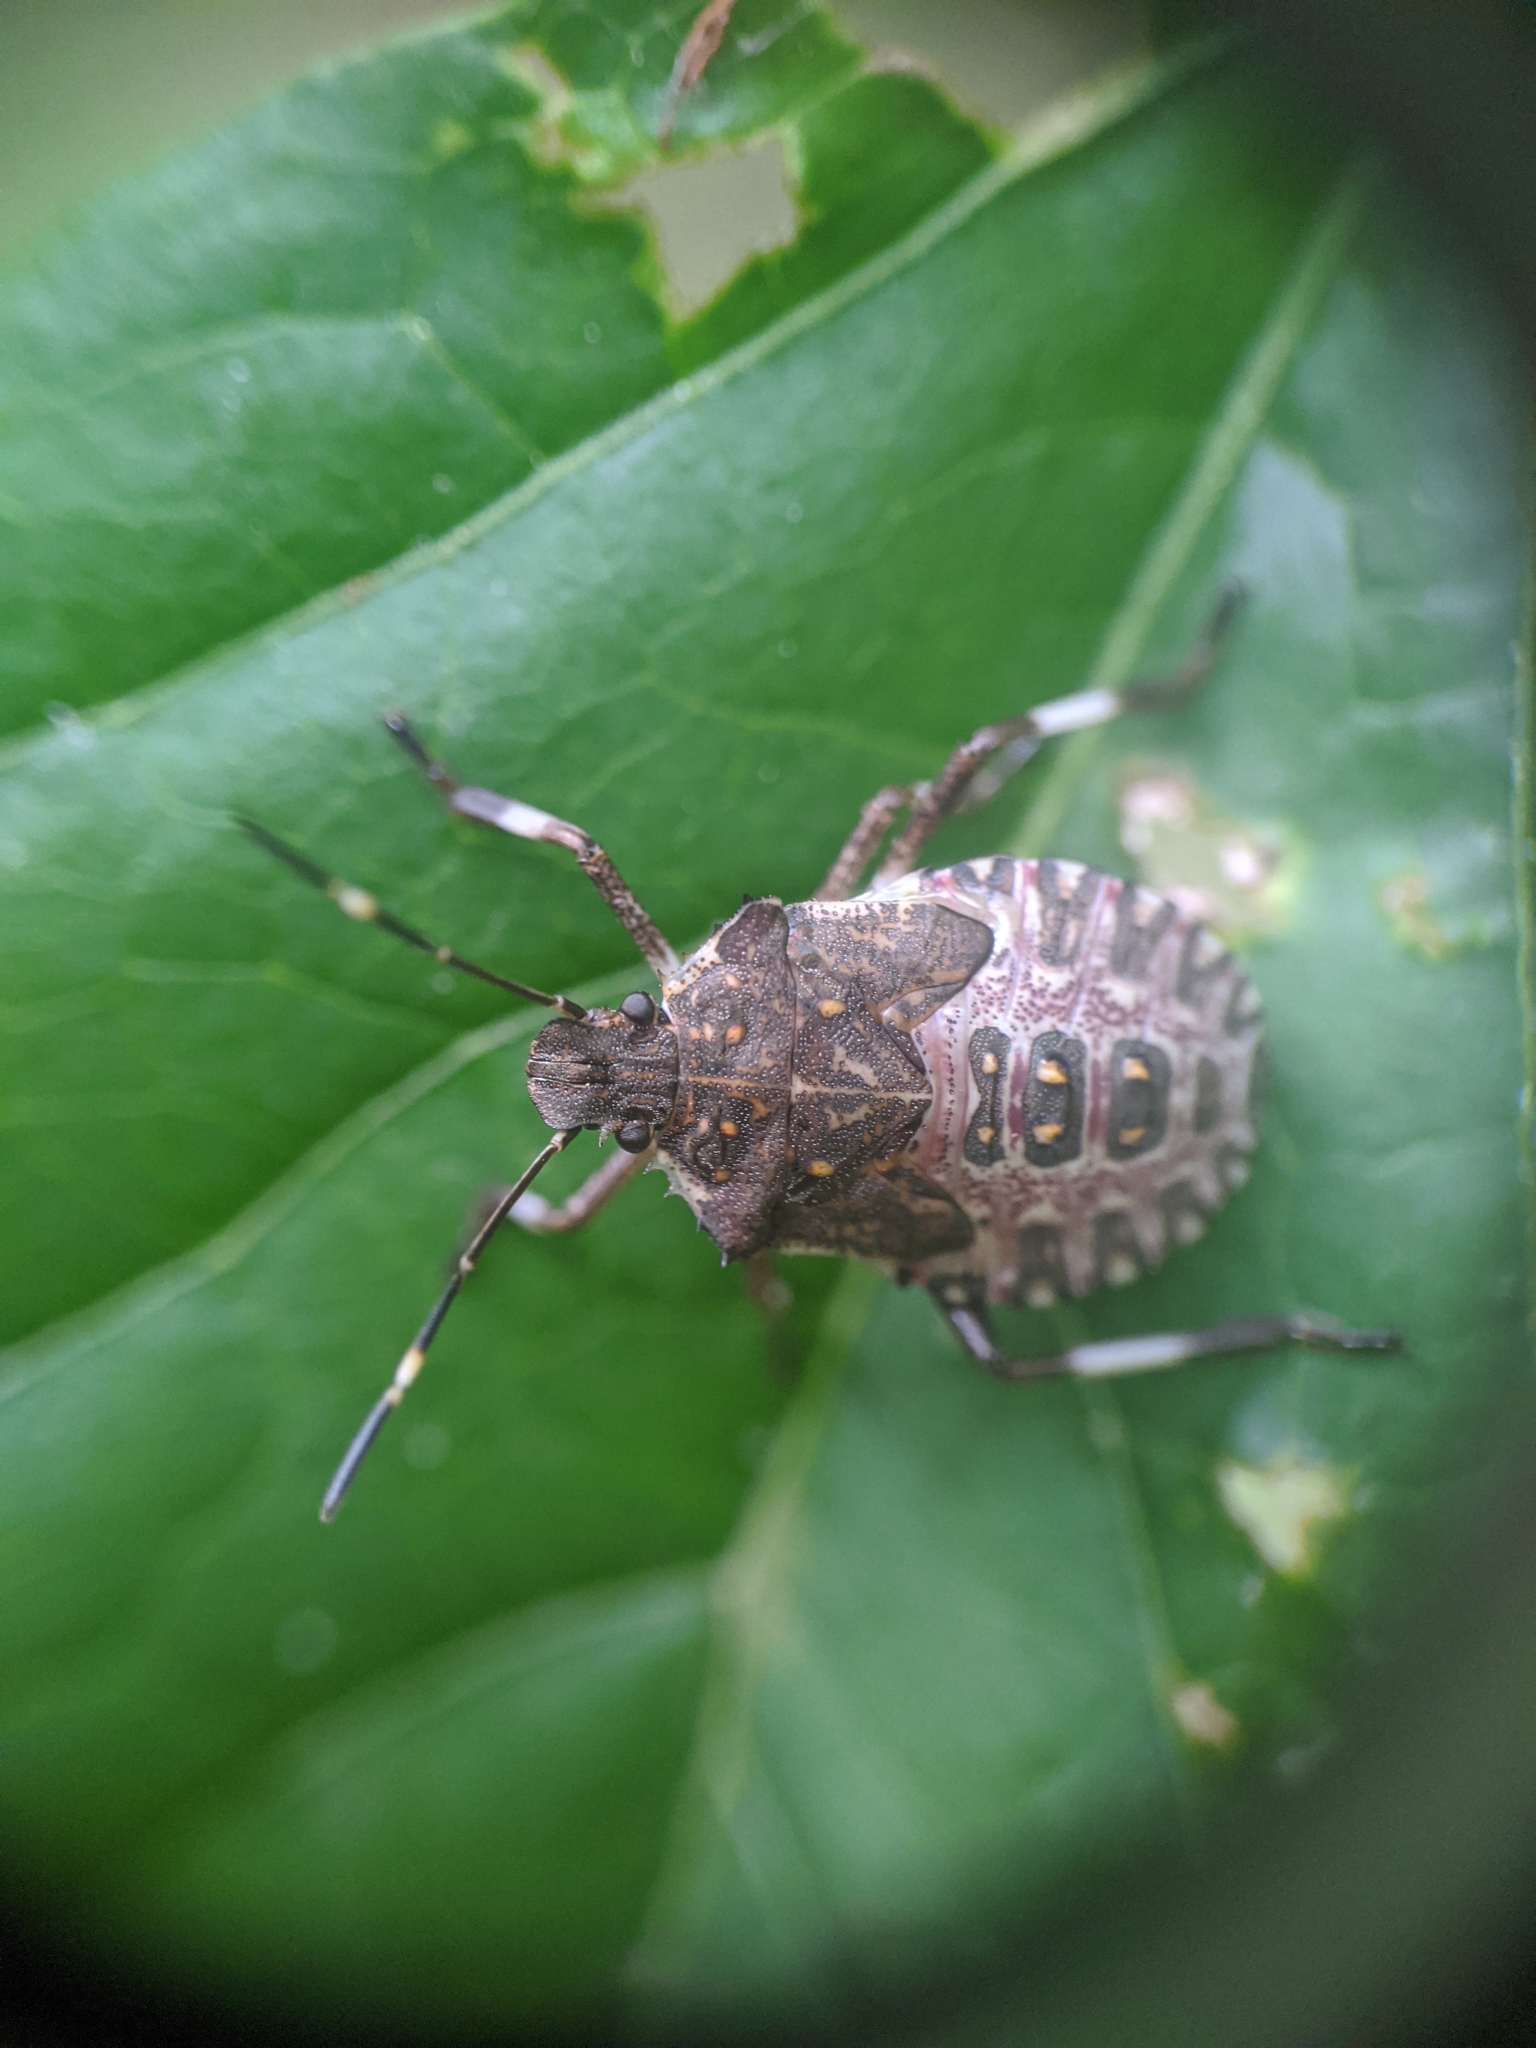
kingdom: Animalia
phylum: Arthropoda
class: Insecta
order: Hemiptera
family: Pentatomidae
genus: Halyomorpha
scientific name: Halyomorpha halys
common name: Brown marmorated stink bug
